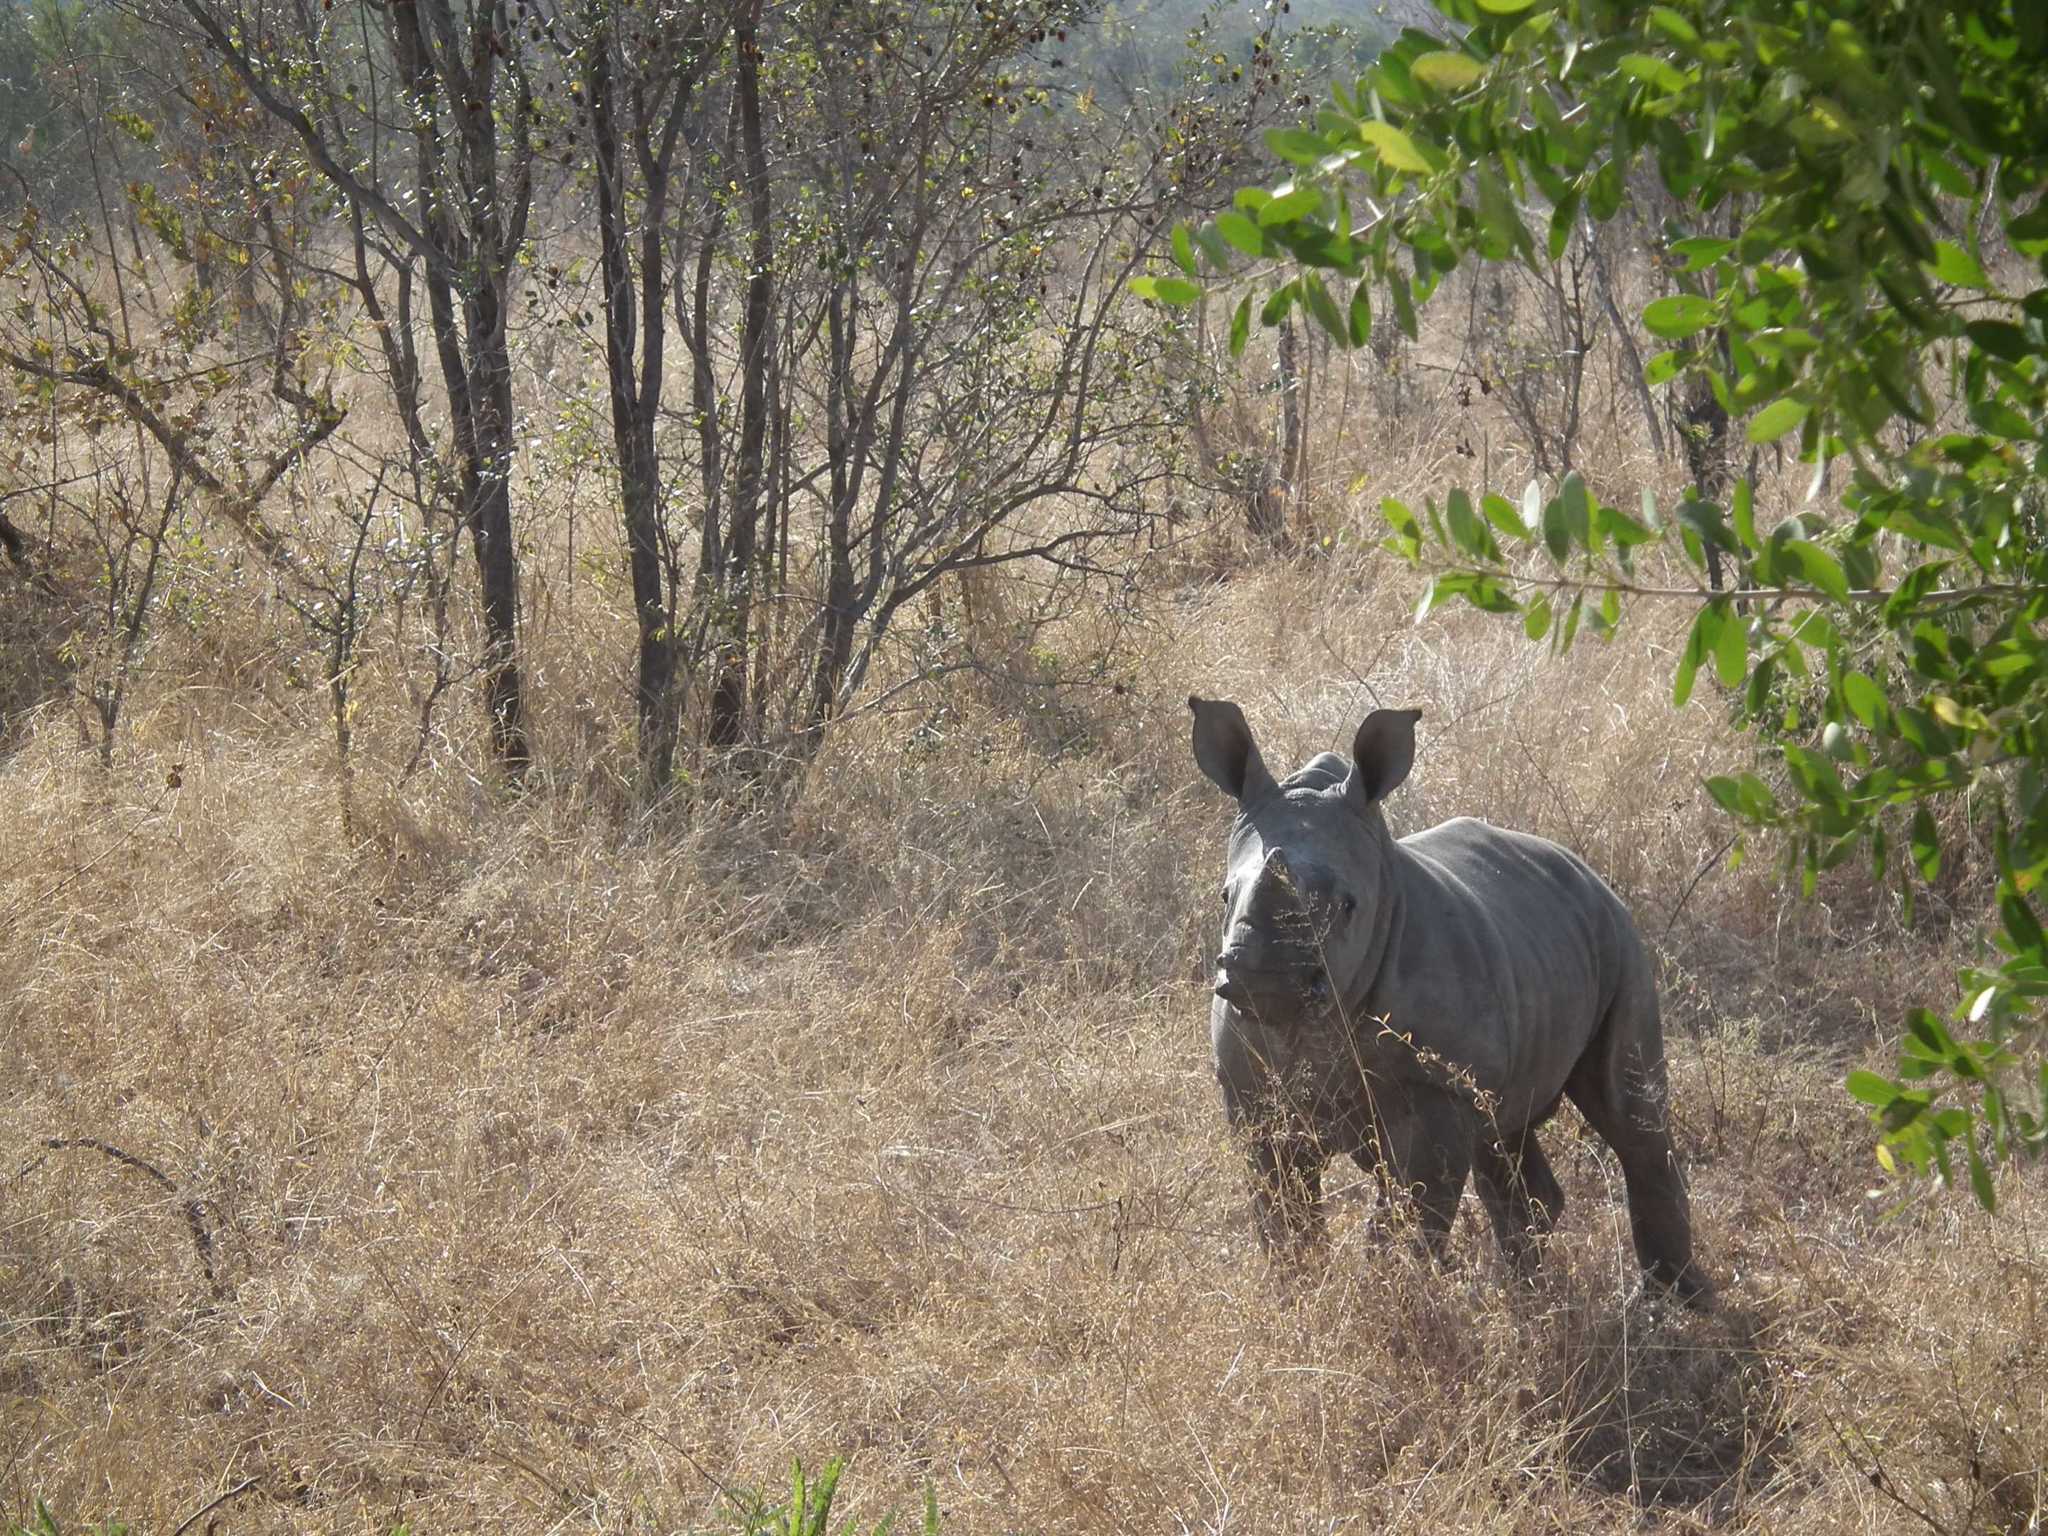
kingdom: Animalia
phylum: Chordata
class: Mammalia
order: Perissodactyla
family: Rhinocerotidae
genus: Ceratotherium
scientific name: Ceratotherium simum
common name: White rhinoceros
